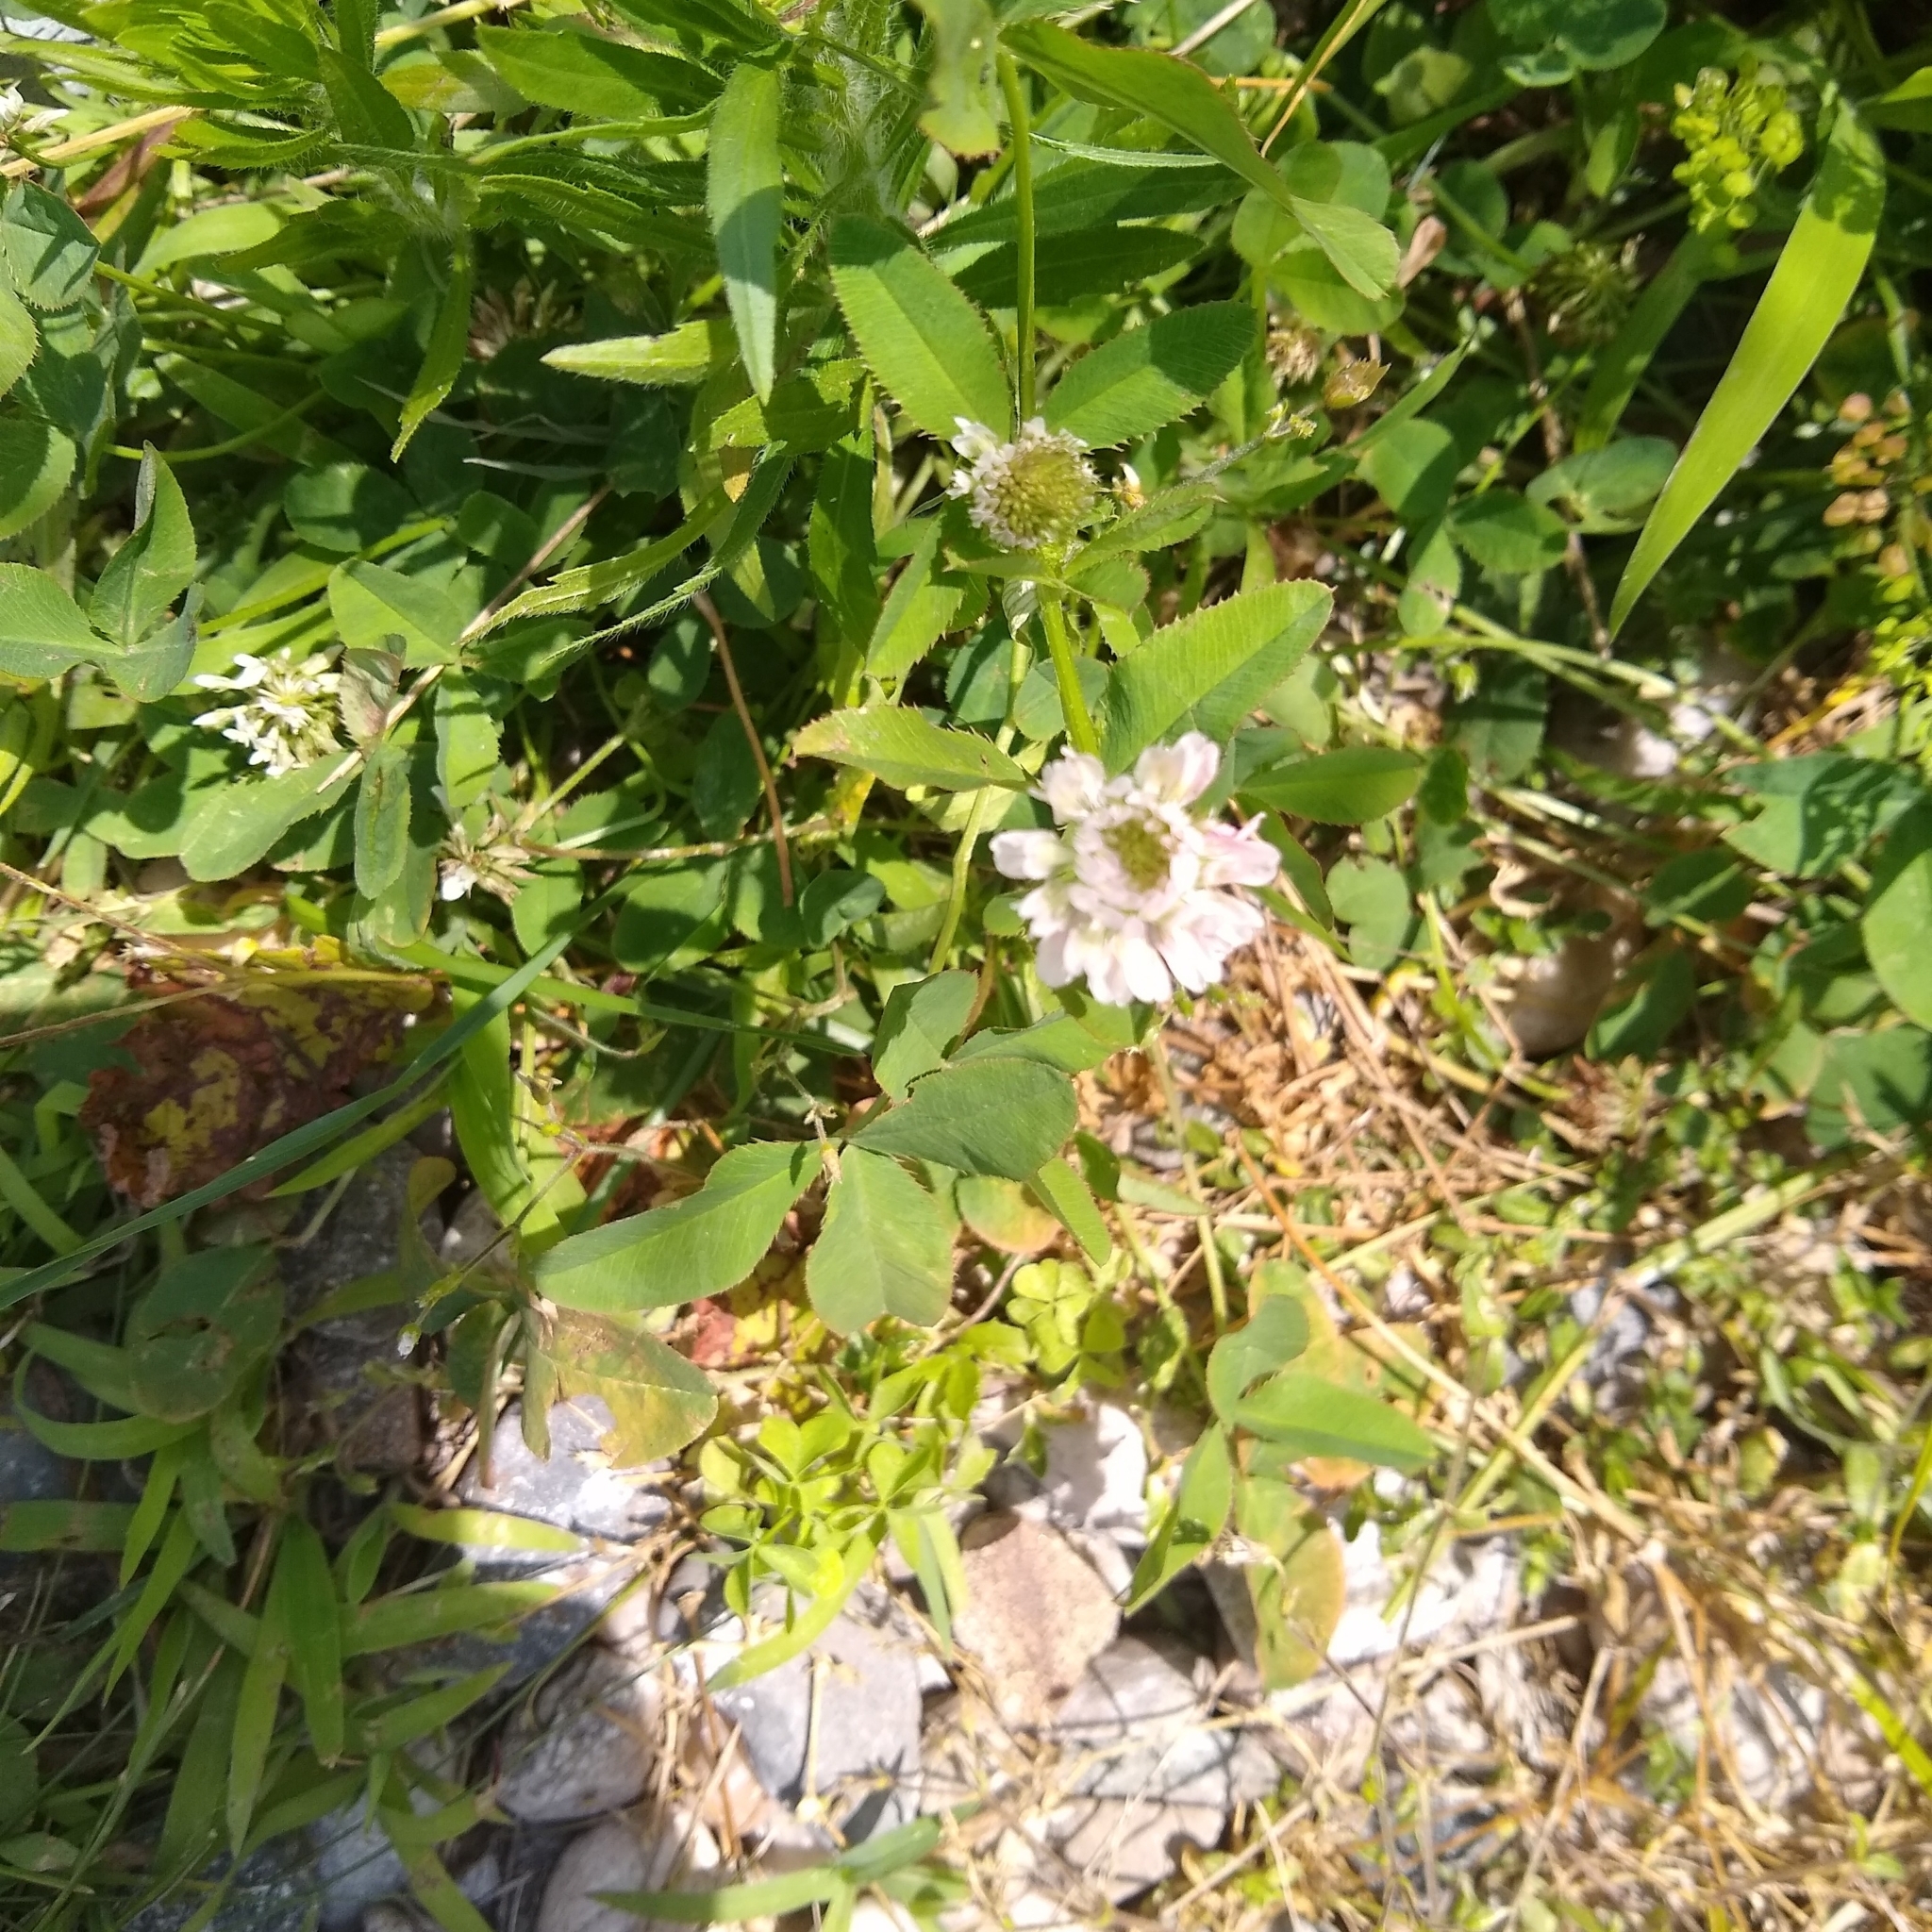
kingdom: Plantae
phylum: Tracheophyta
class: Magnoliopsida
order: Fabales
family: Fabaceae
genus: Trifolium
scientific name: Trifolium hybridum
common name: Alsike clover
